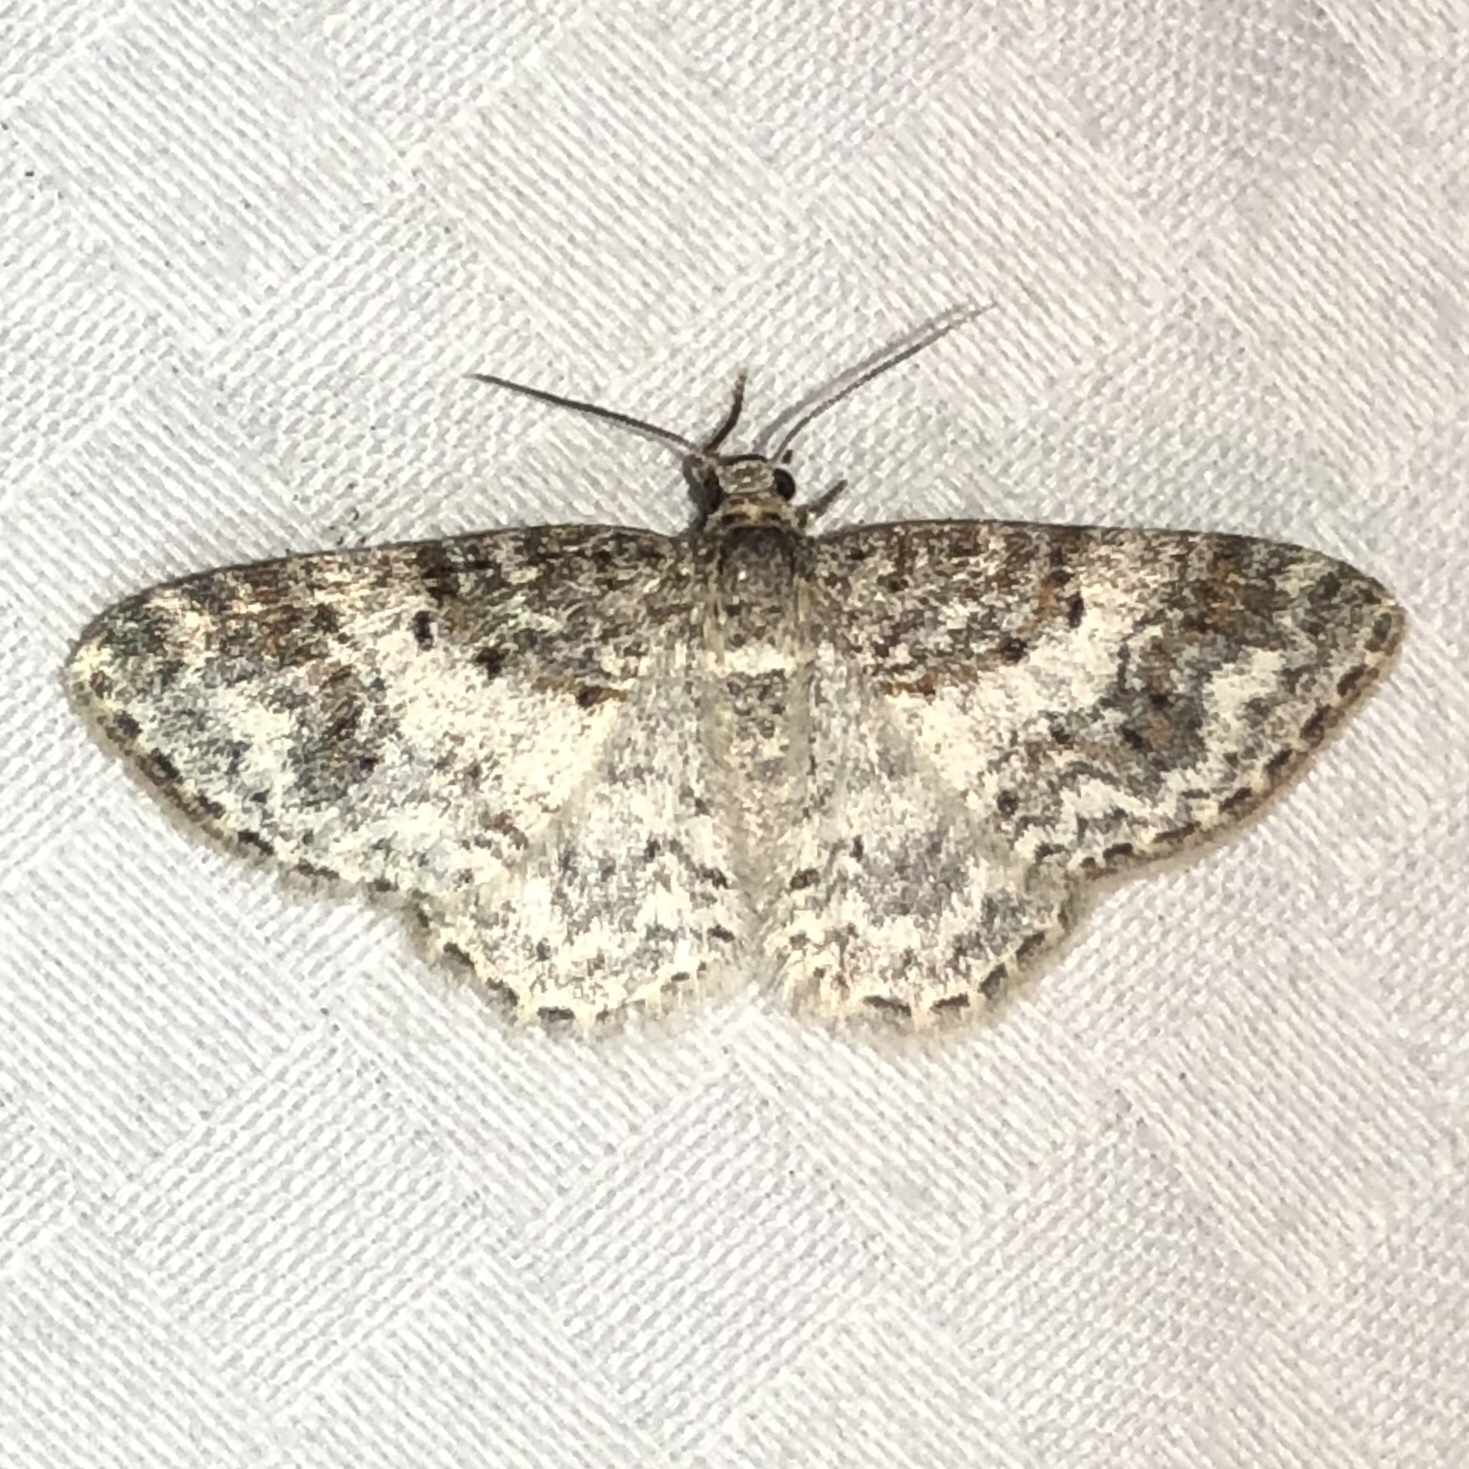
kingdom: Animalia
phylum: Arthropoda
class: Insecta
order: Lepidoptera
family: Geometridae
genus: Hydrelia
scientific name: Hydrelia inornata
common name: Unadorned carpet moth
